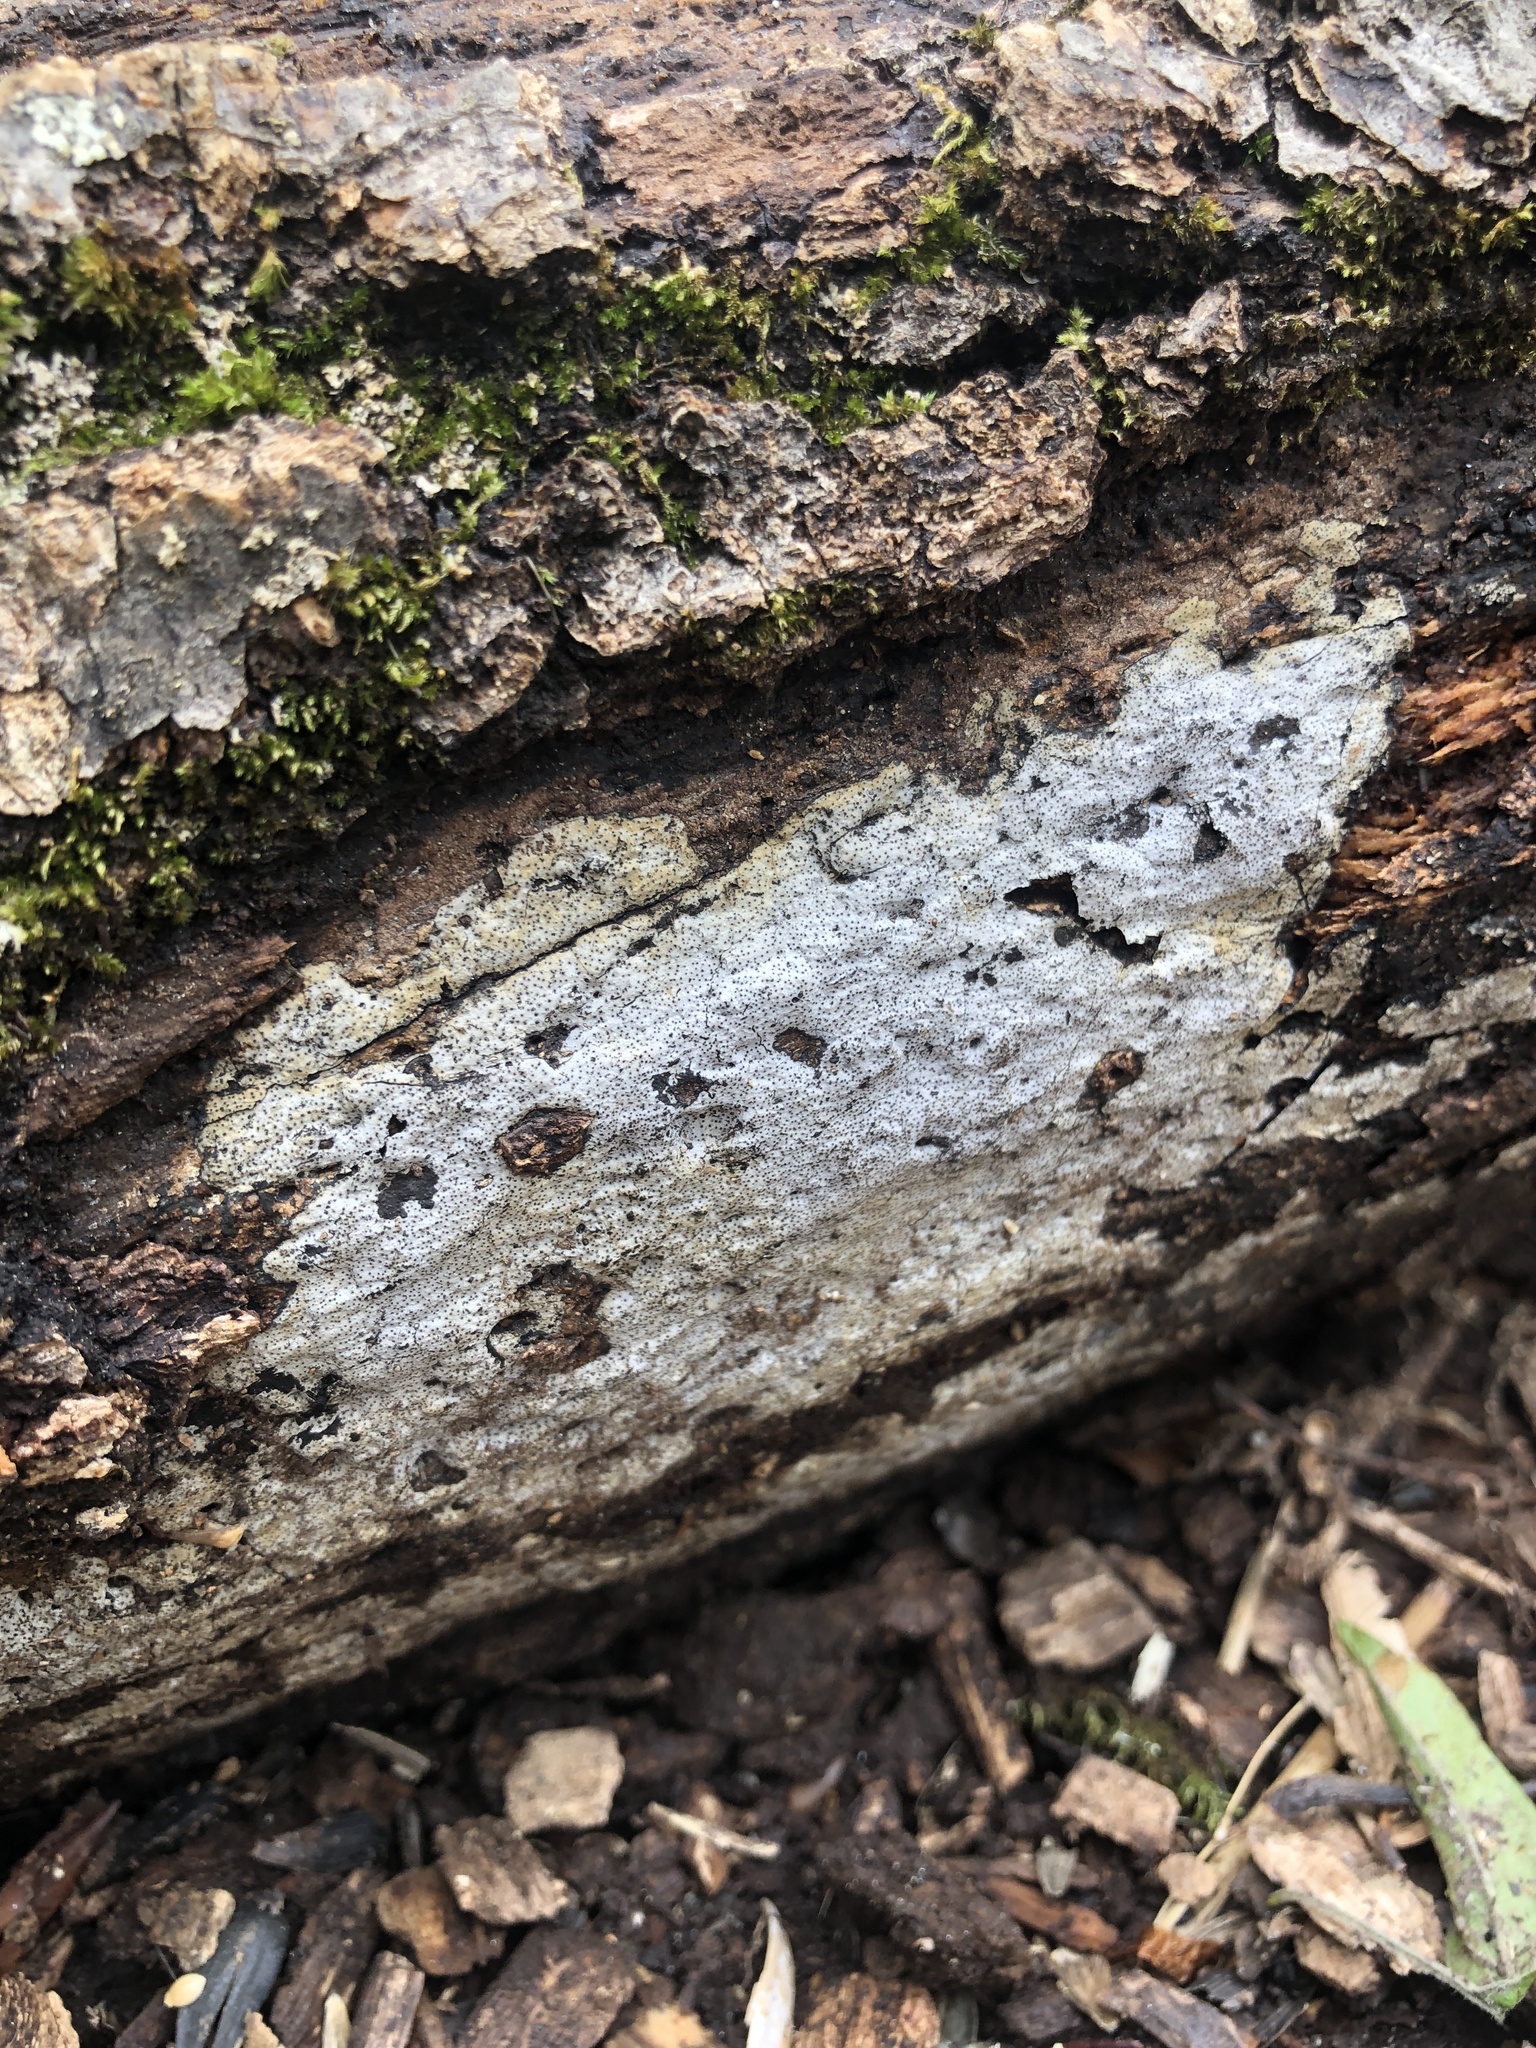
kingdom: Fungi
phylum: Ascomycota
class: Sordariomycetes
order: Xylariales
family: Graphostromataceae
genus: Biscogniauxia
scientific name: Biscogniauxia atropunctata
